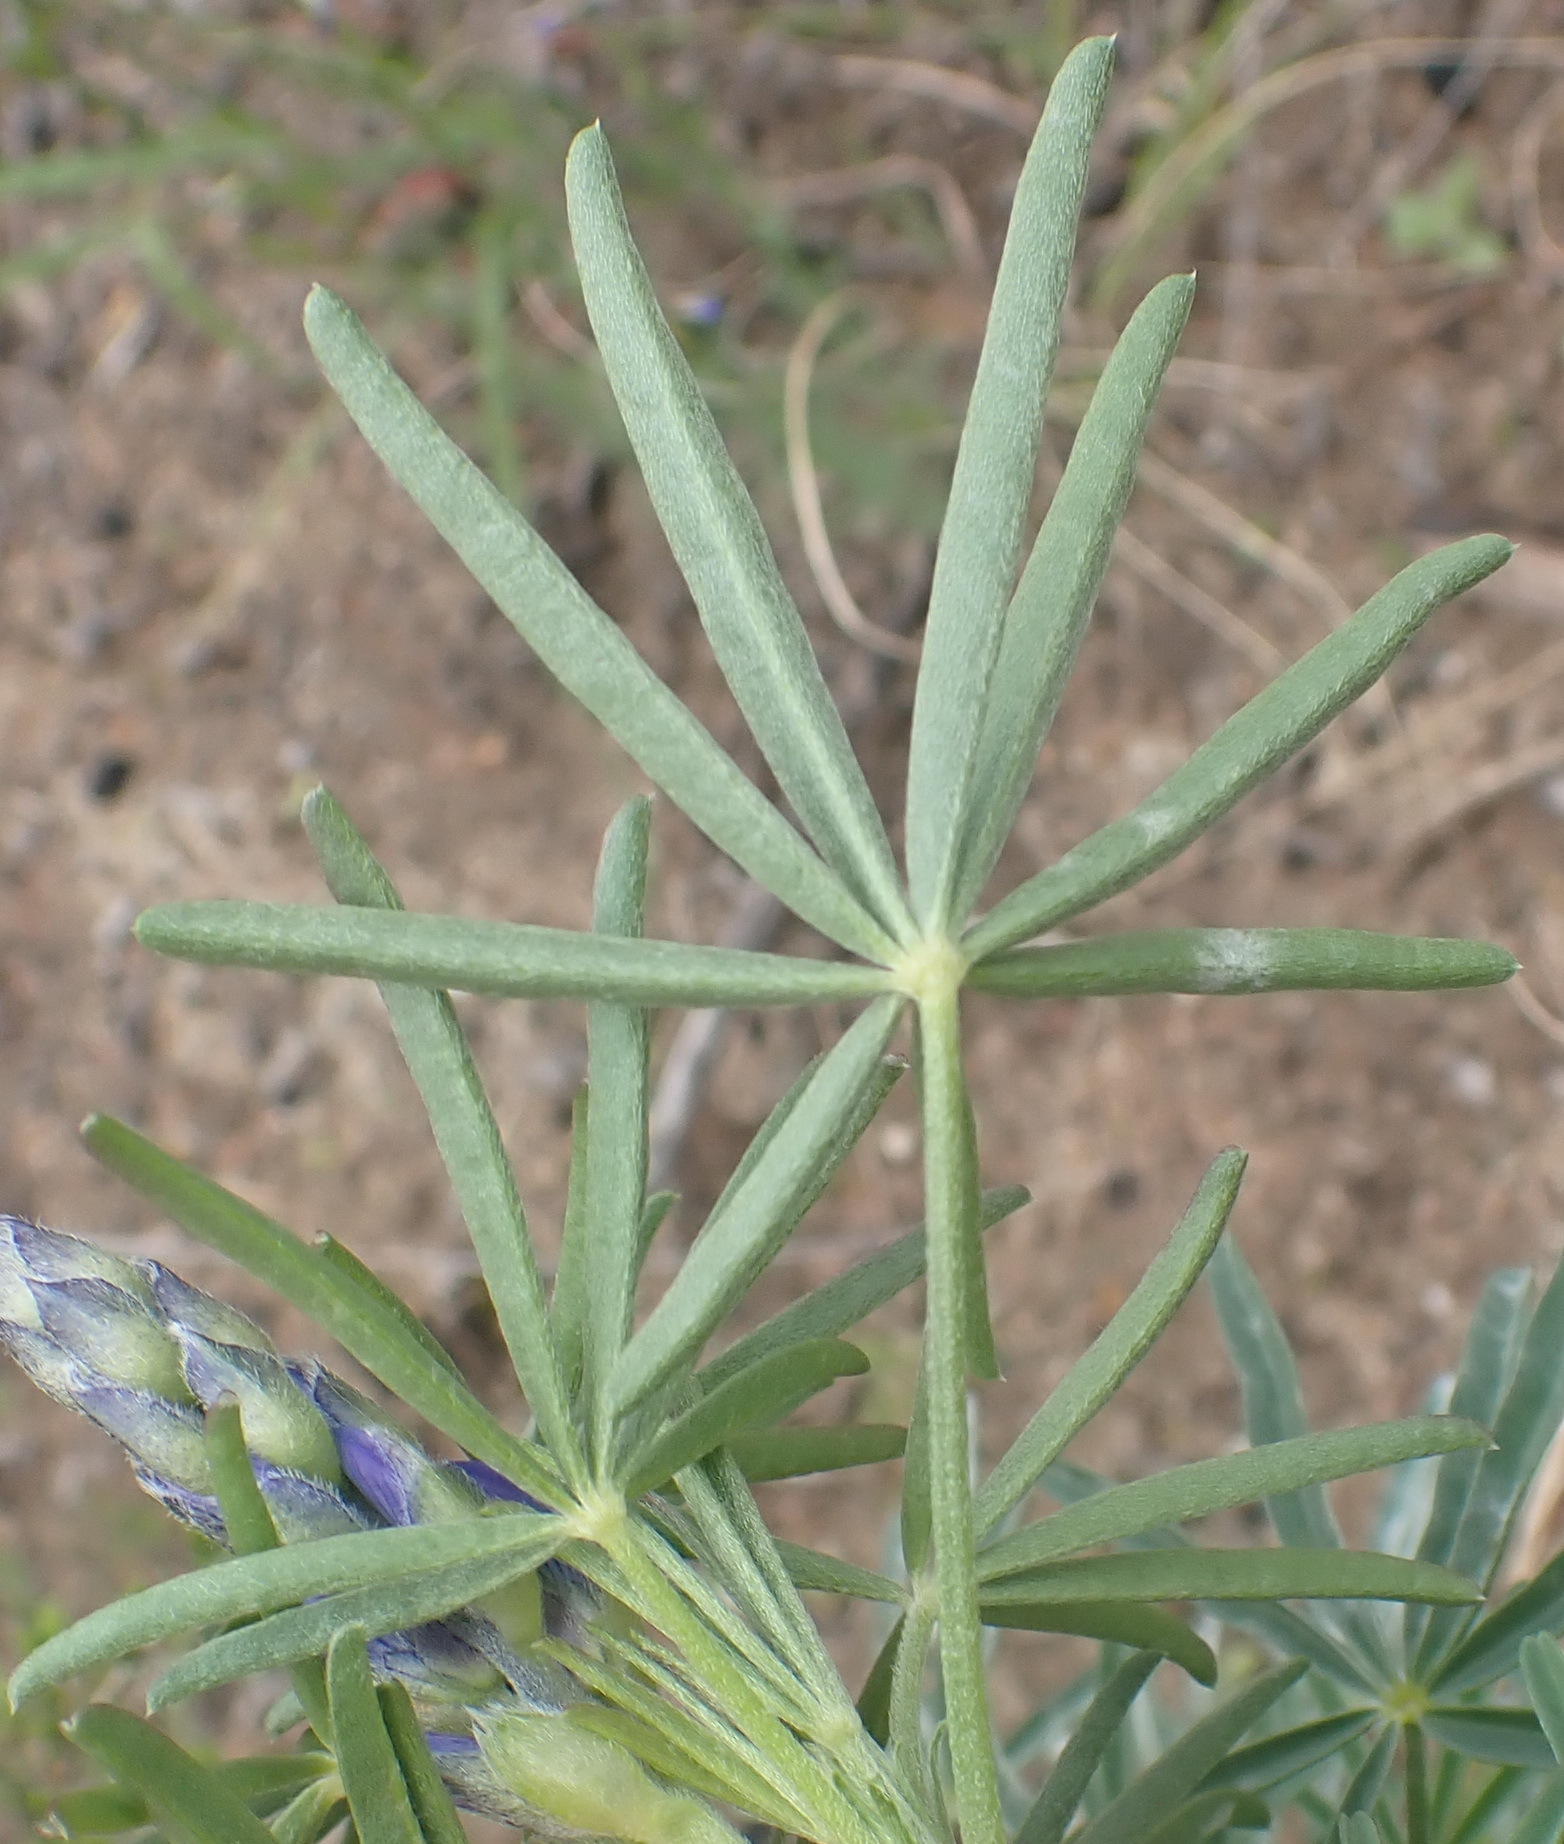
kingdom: Plantae
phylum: Tracheophyta
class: Magnoliopsida
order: Fabales
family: Fabaceae
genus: Lupinus
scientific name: Lupinus angustifolius
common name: Narrow-leaved lupin
